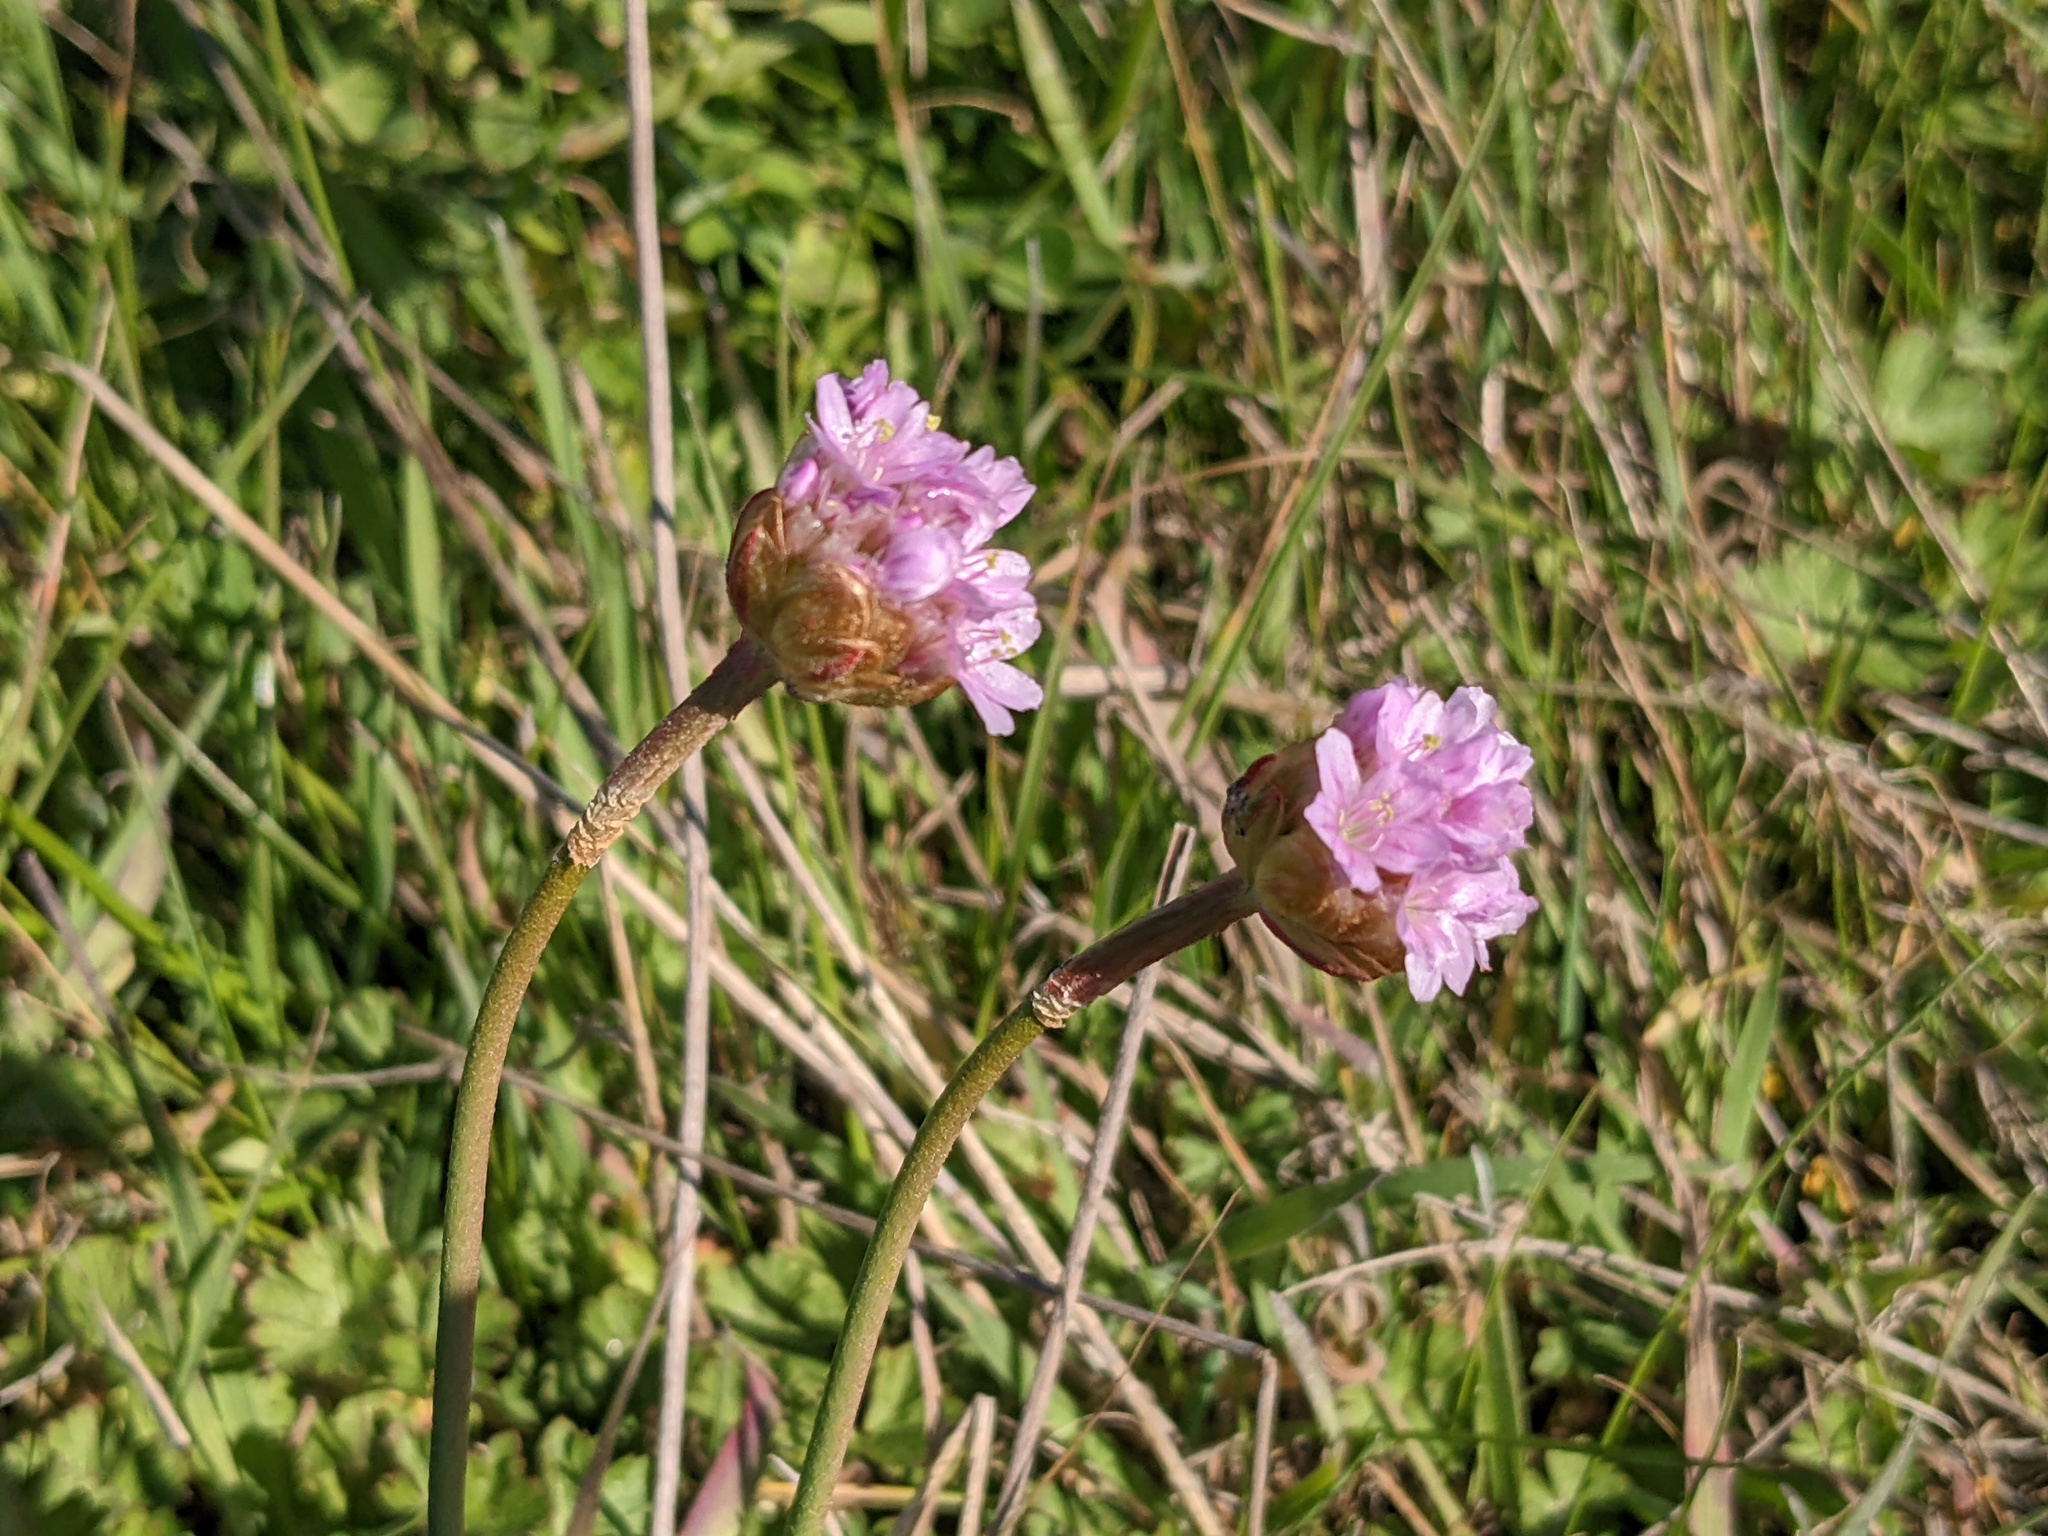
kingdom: Plantae
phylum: Tracheophyta
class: Magnoliopsida
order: Caryophyllales
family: Plumbaginaceae
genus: Armeria
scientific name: Armeria maritima
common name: Thrift
